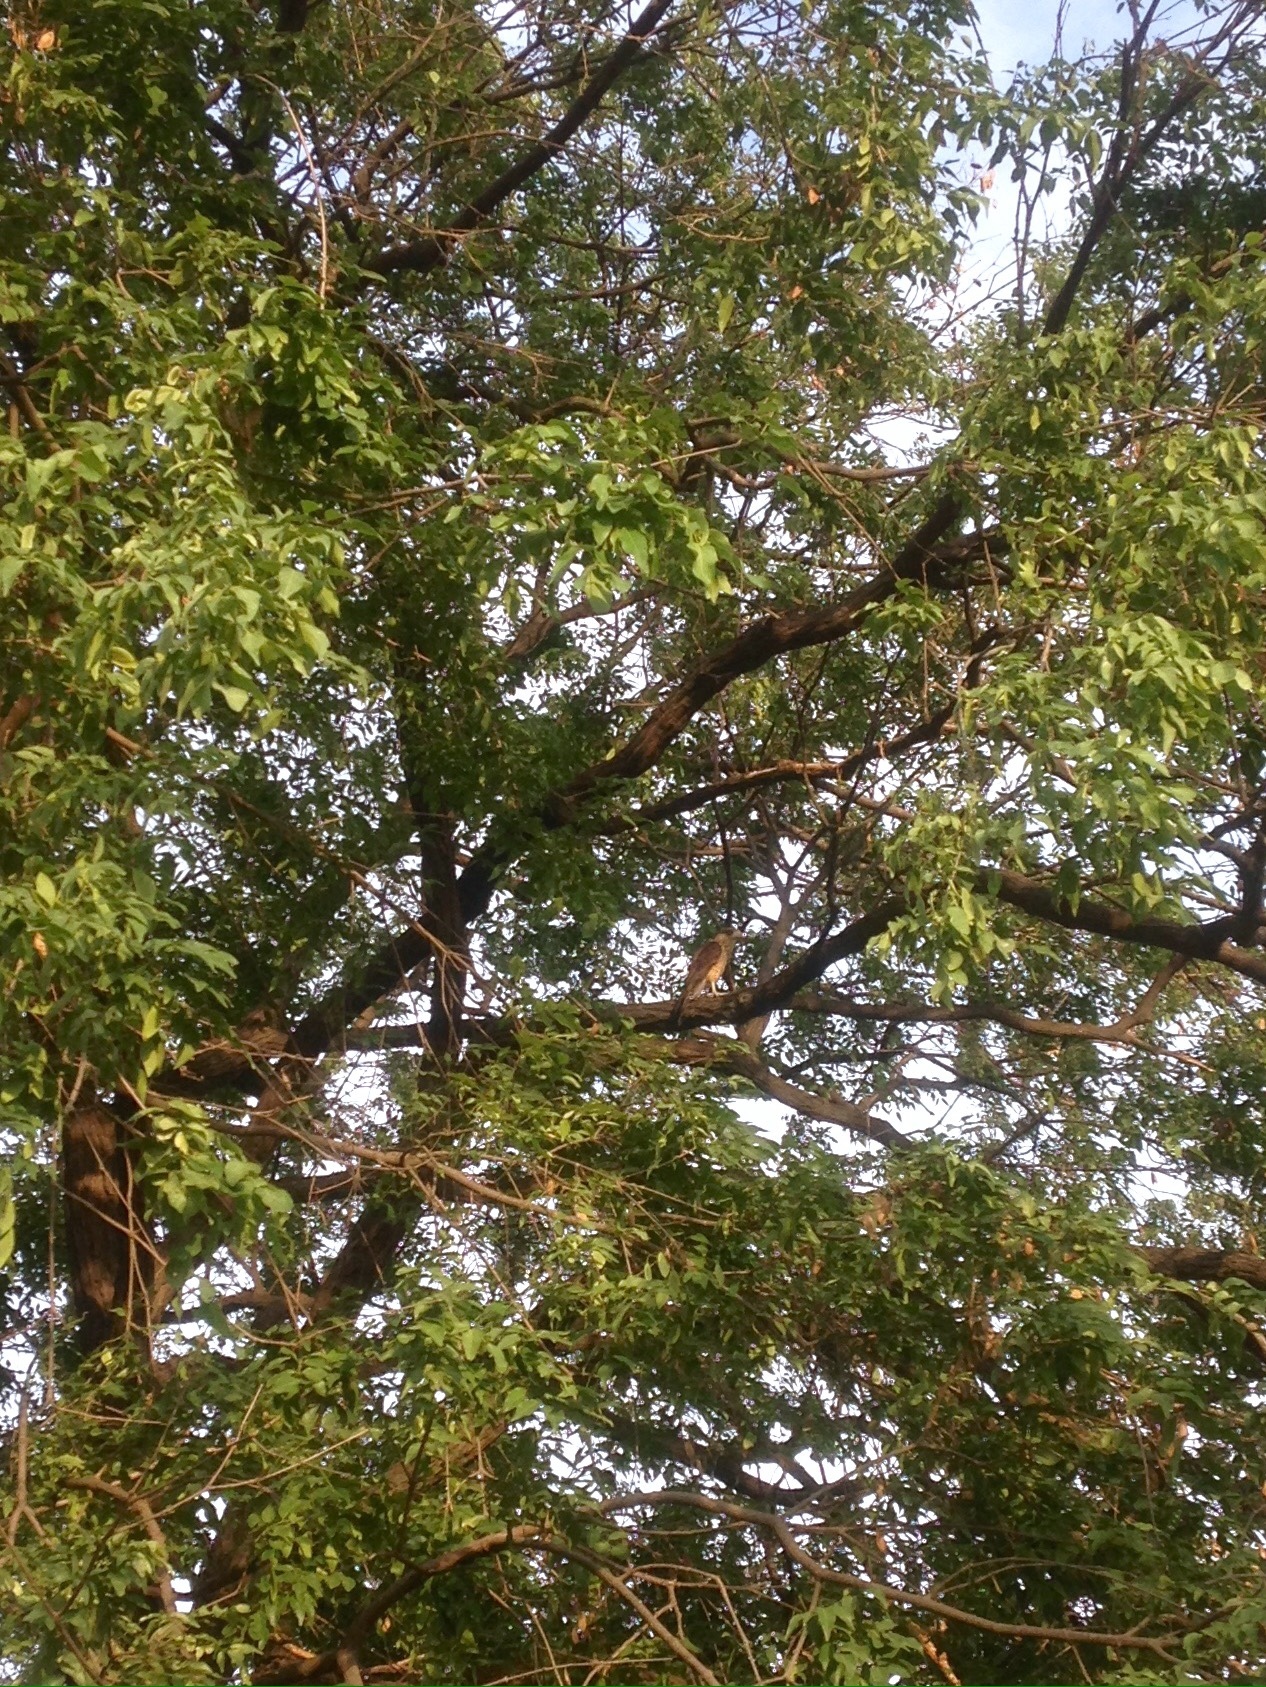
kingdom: Animalia
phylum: Chordata
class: Aves
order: Falconiformes
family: Falconidae
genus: Daptrius
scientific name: Daptrius
